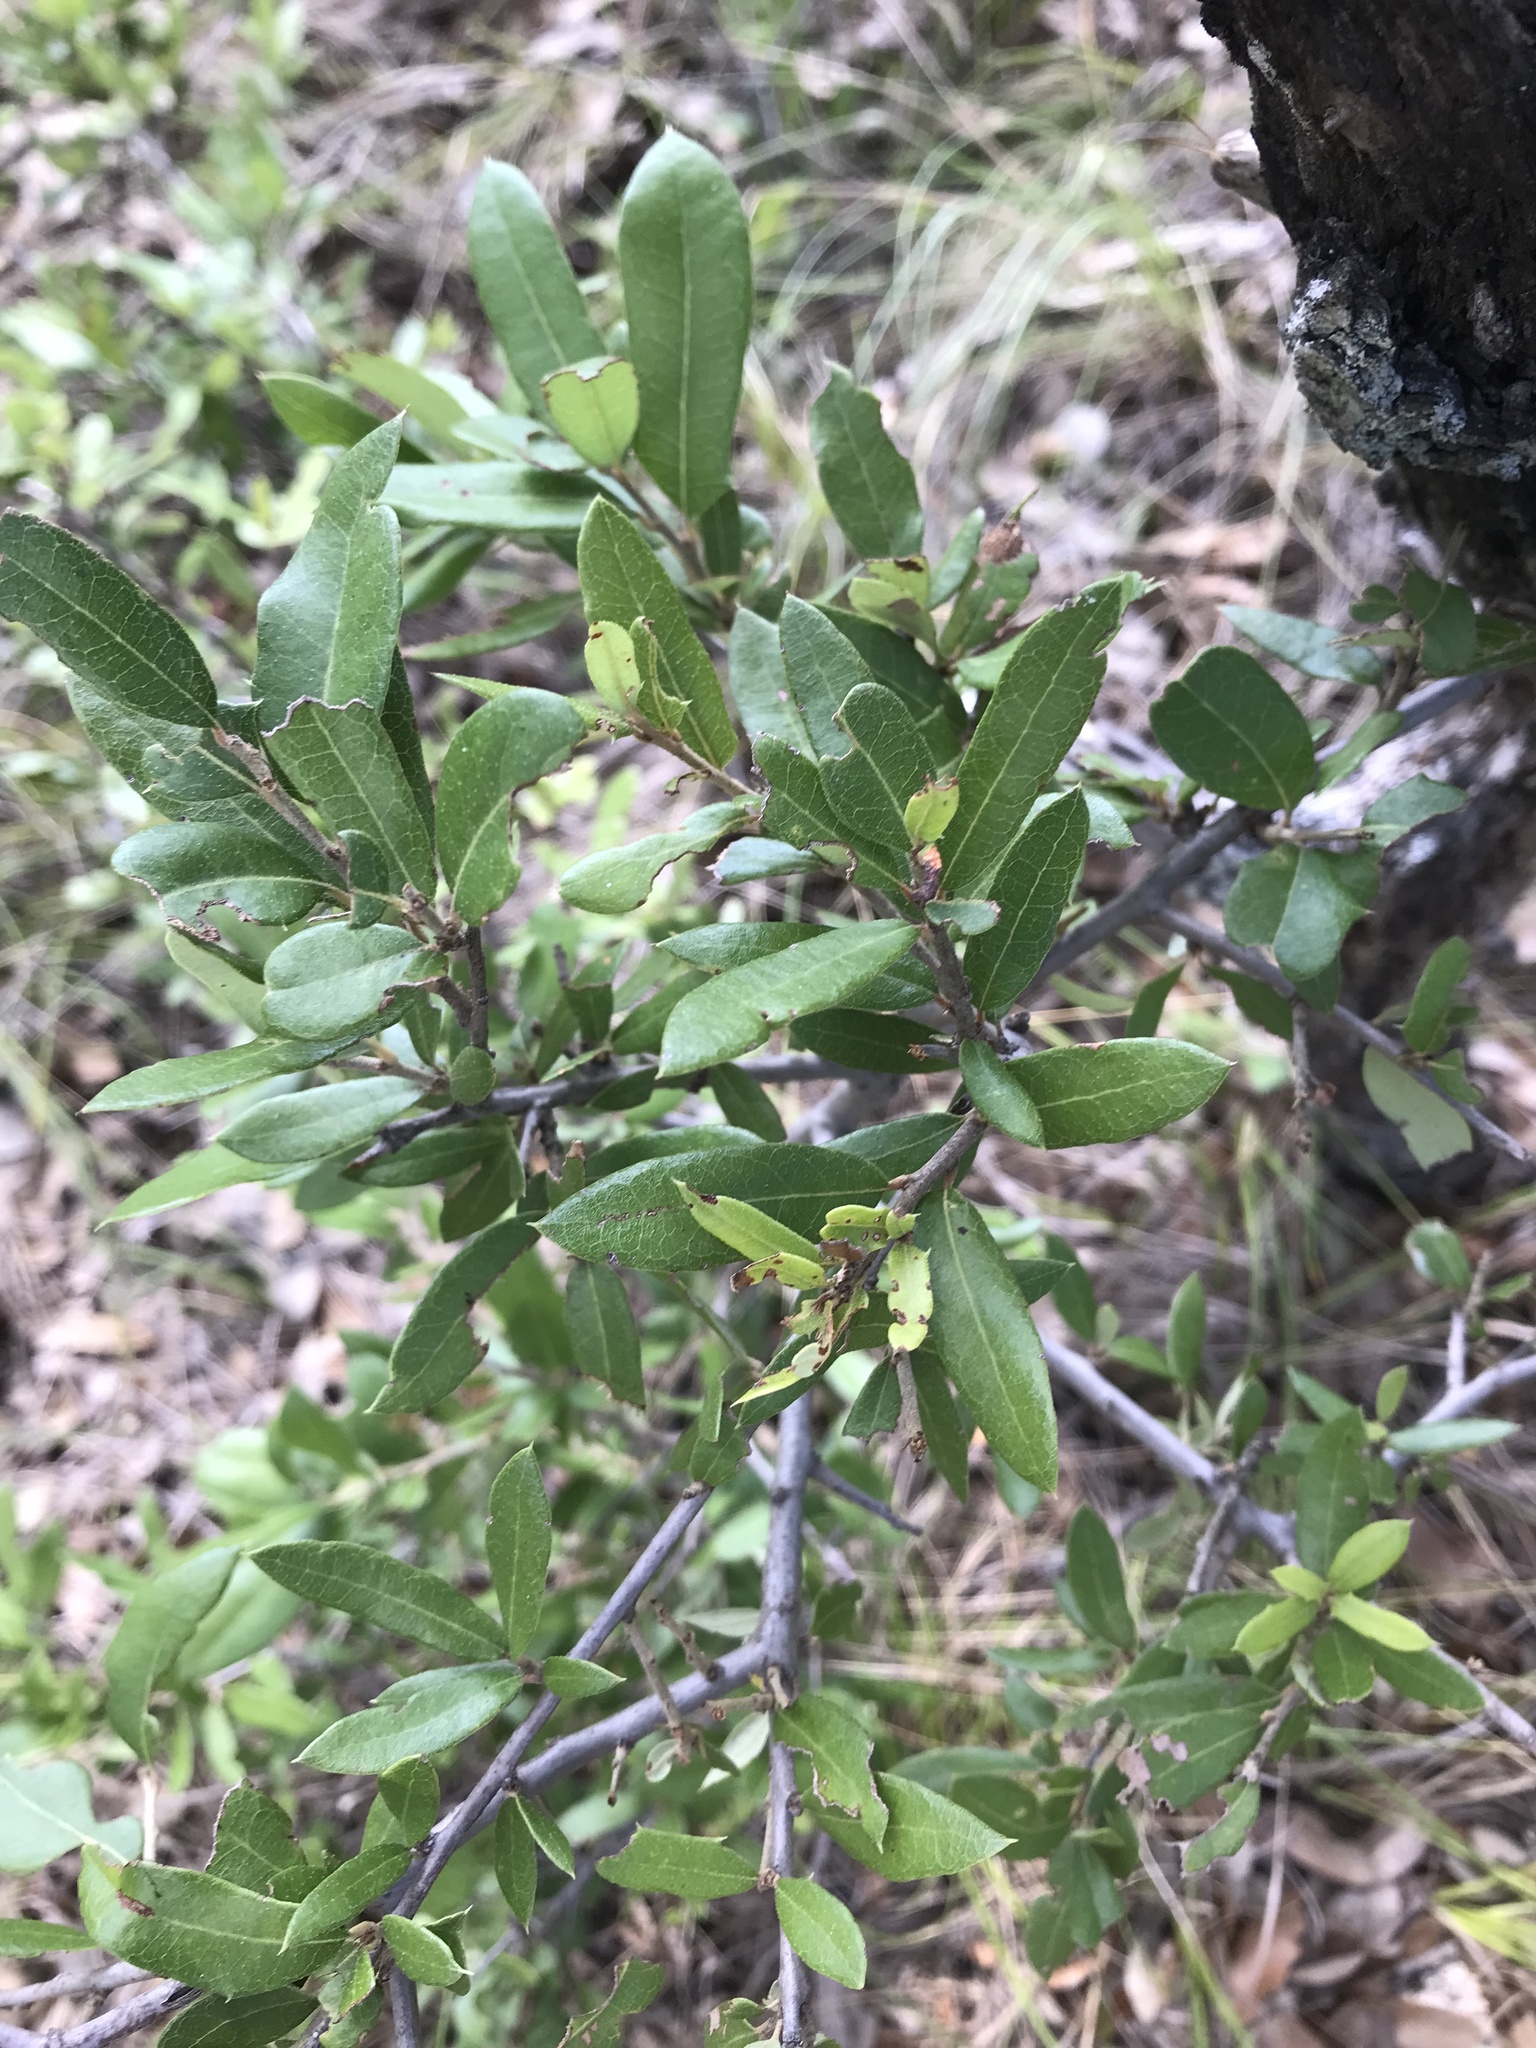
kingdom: Plantae
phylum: Tracheophyta
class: Magnoliopsida
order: Fagales
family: Fagaceae
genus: Quercus
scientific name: Quercus fusiformis
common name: Texas live oak
